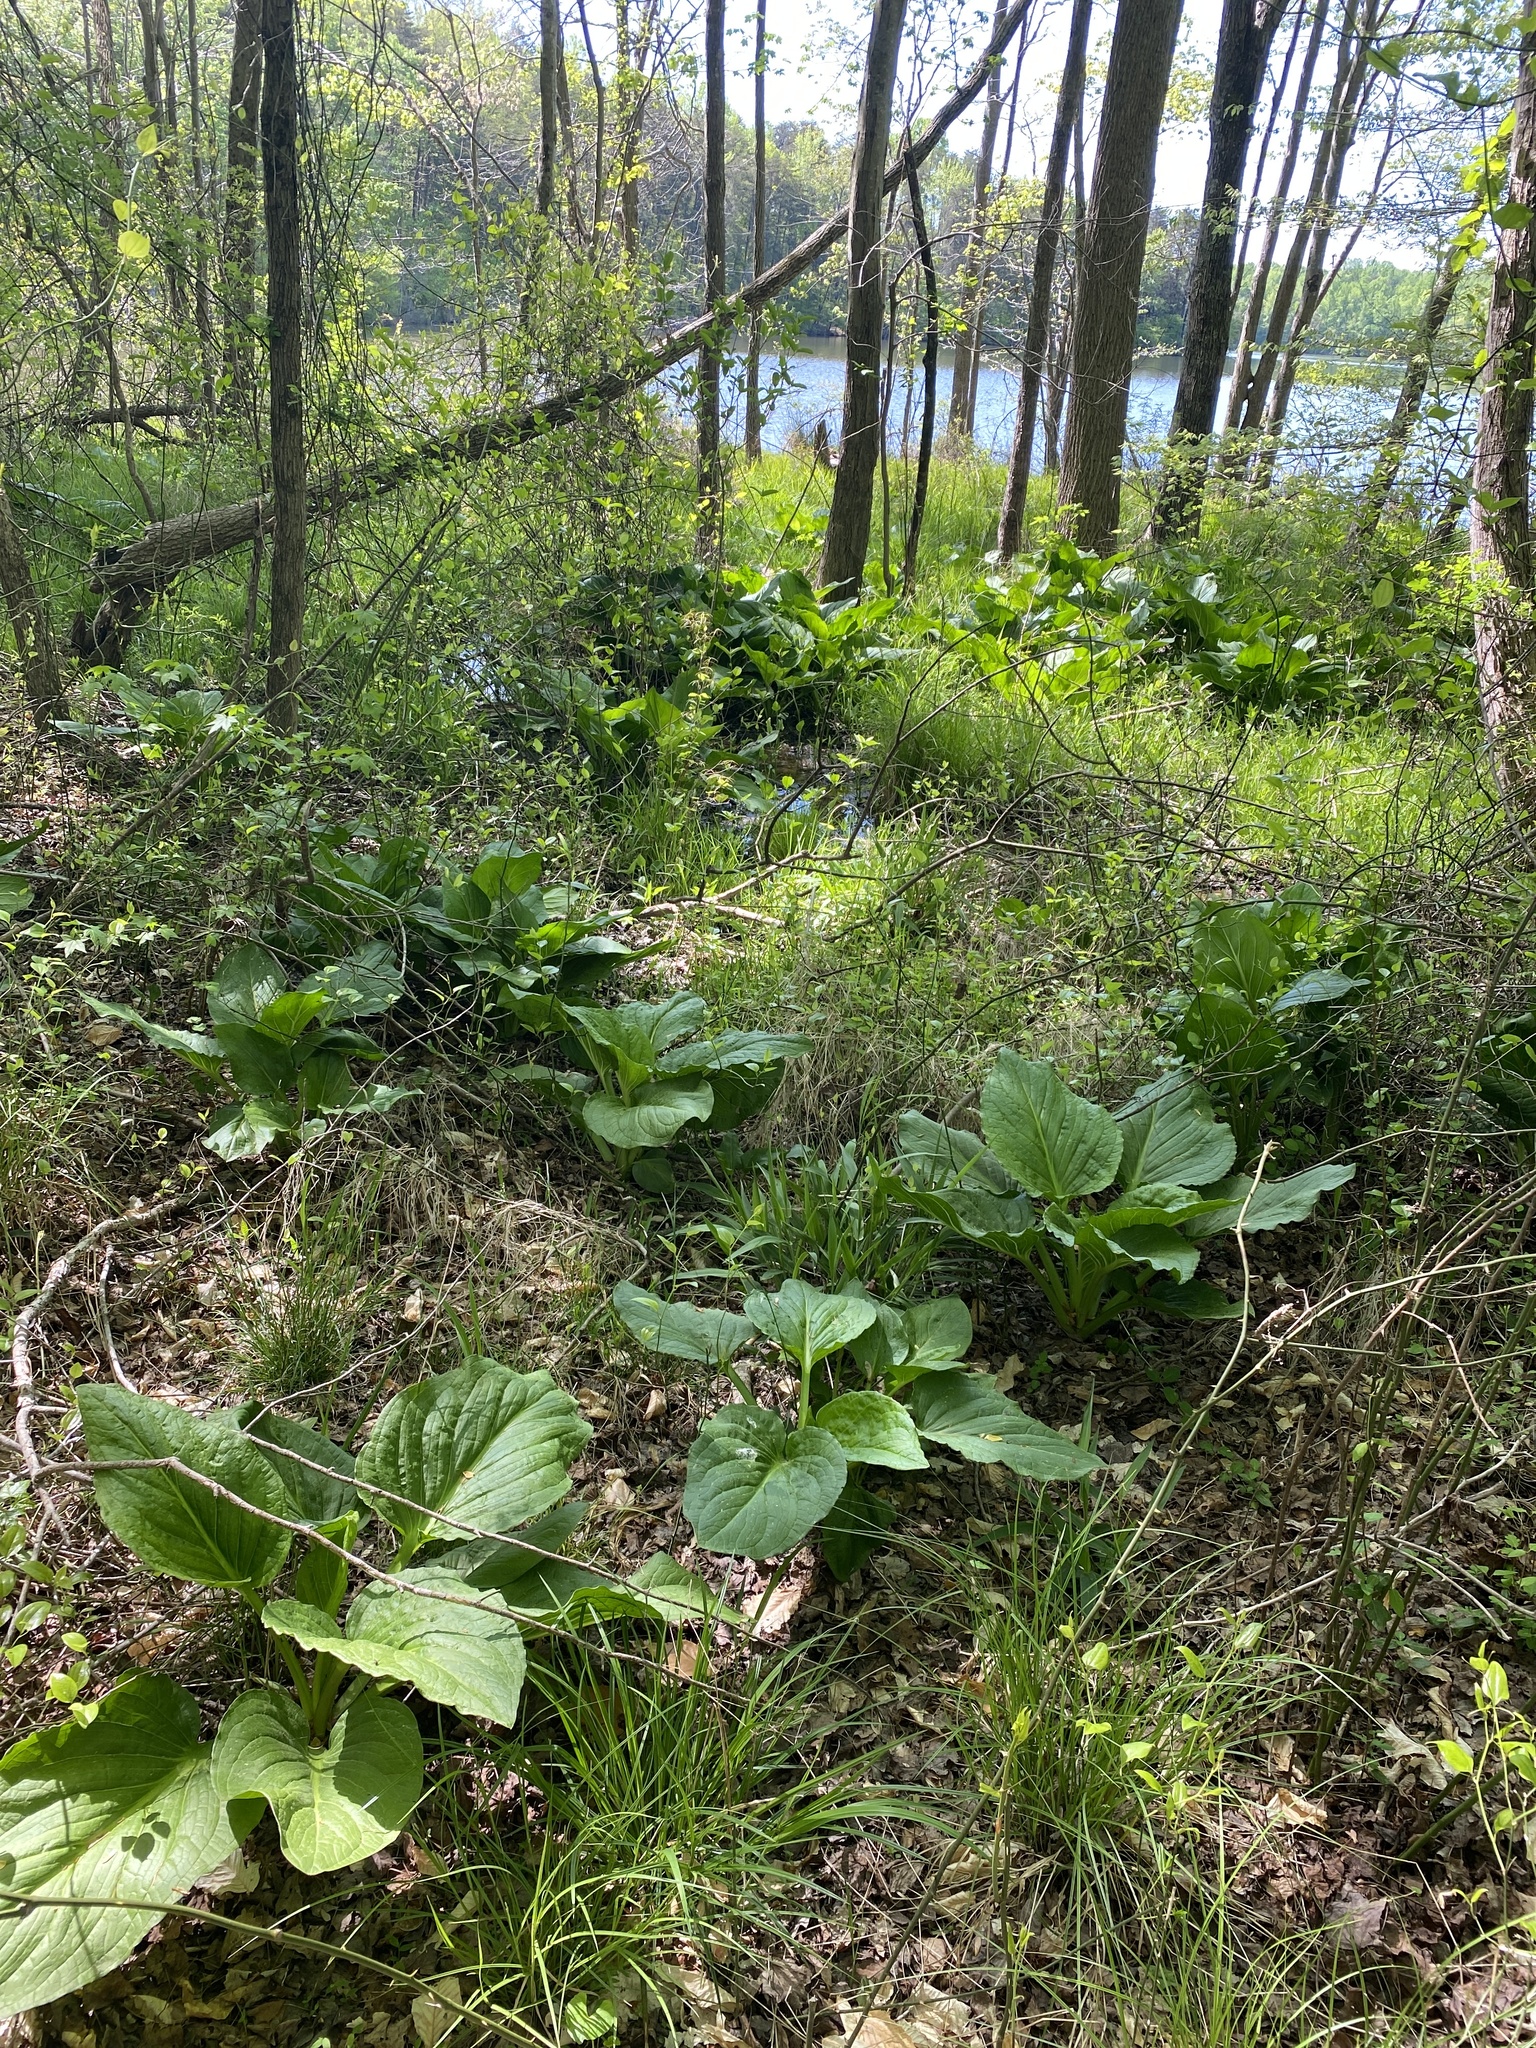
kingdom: Plantae
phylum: Tracheophyta
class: Liliopsida
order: Alismatales
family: Araceae
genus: Symplocarpus
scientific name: Symplocarpus foetidus
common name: Eastern skunk cabbage
